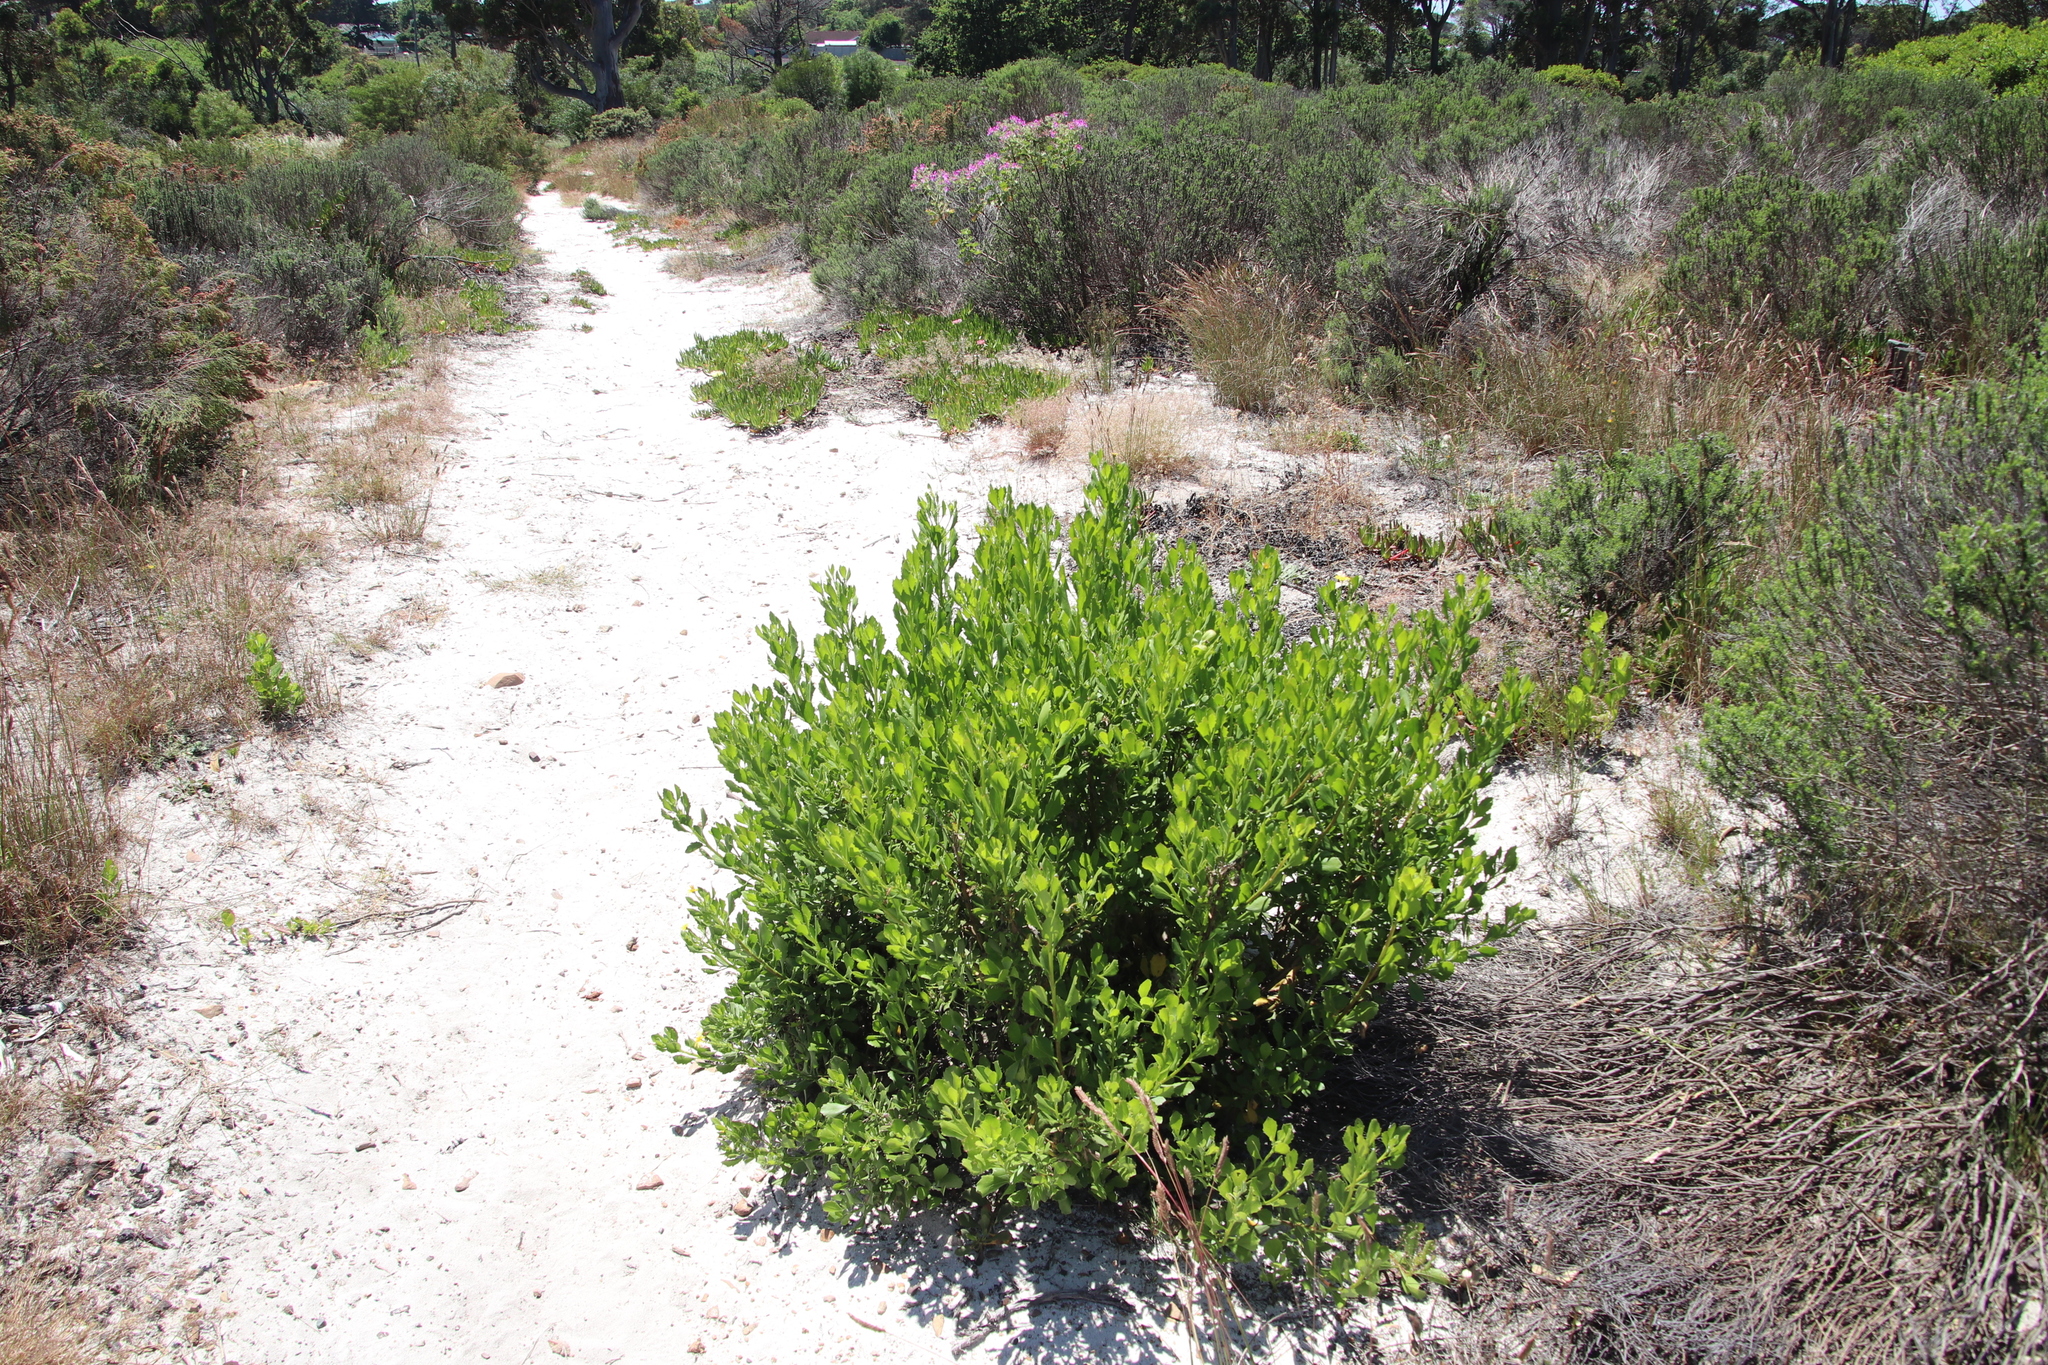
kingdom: Plantae
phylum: Tracheophyta
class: Magnoliopsida
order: Asterales
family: Asteraceae
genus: Osteospermum
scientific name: Osteospermum moniliferum
